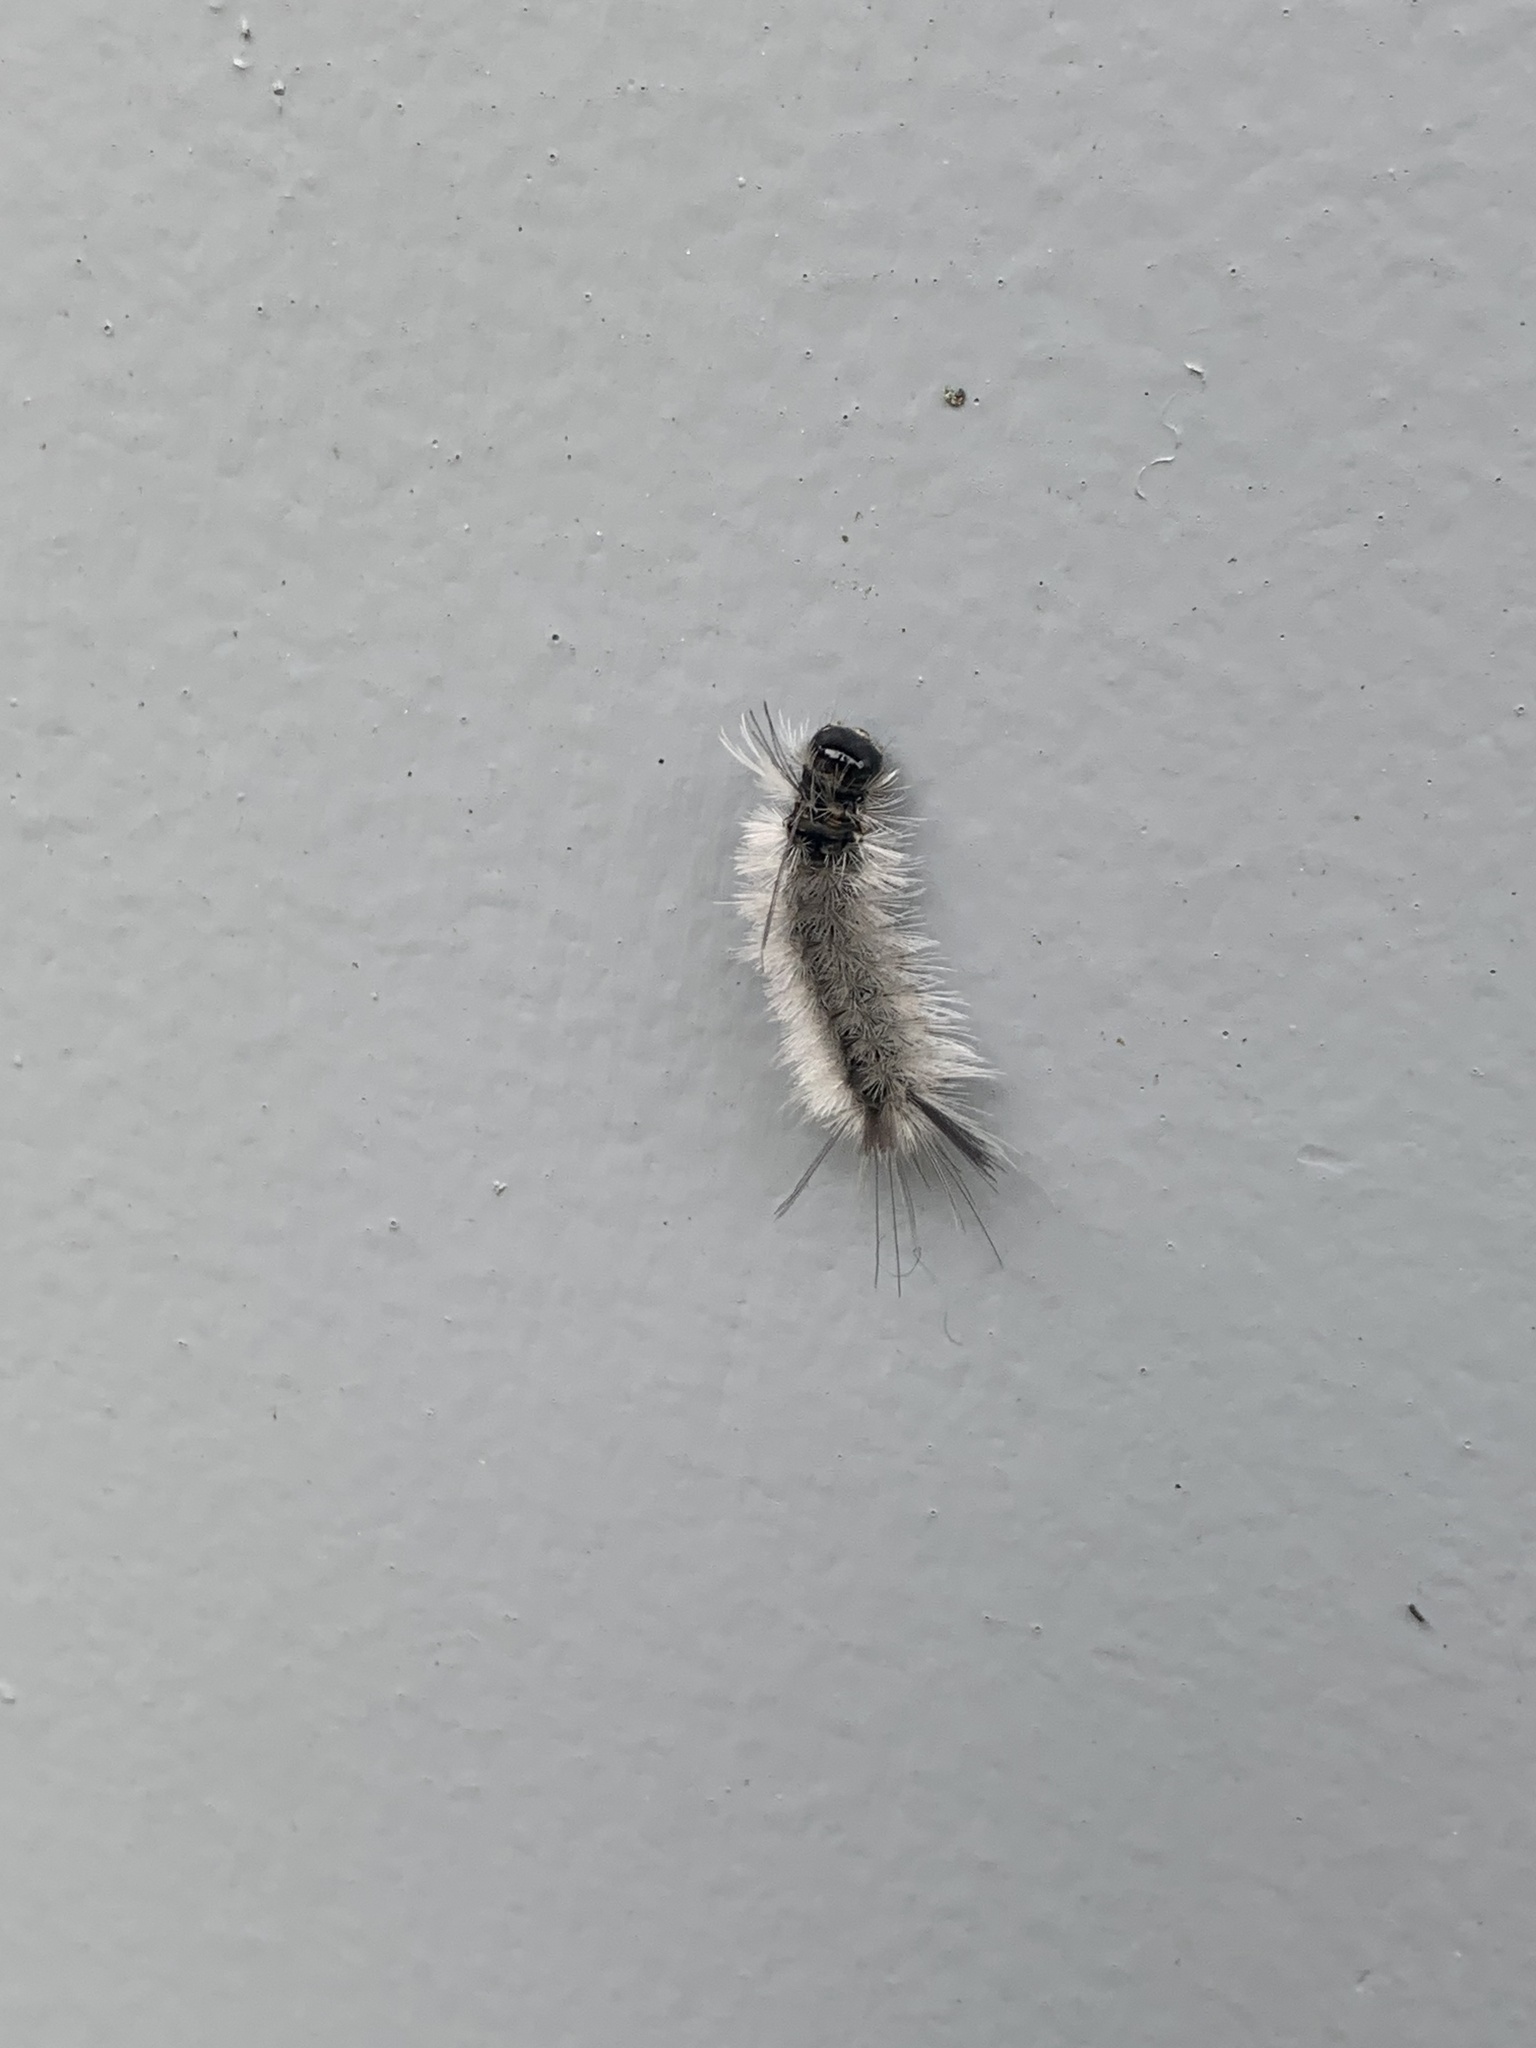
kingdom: Animalia
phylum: Arthropoda
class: Insecta
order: Lepidoptera
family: Erebidae
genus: Halysidota
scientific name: Halysidota tessellaris
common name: Banded tussock moth
